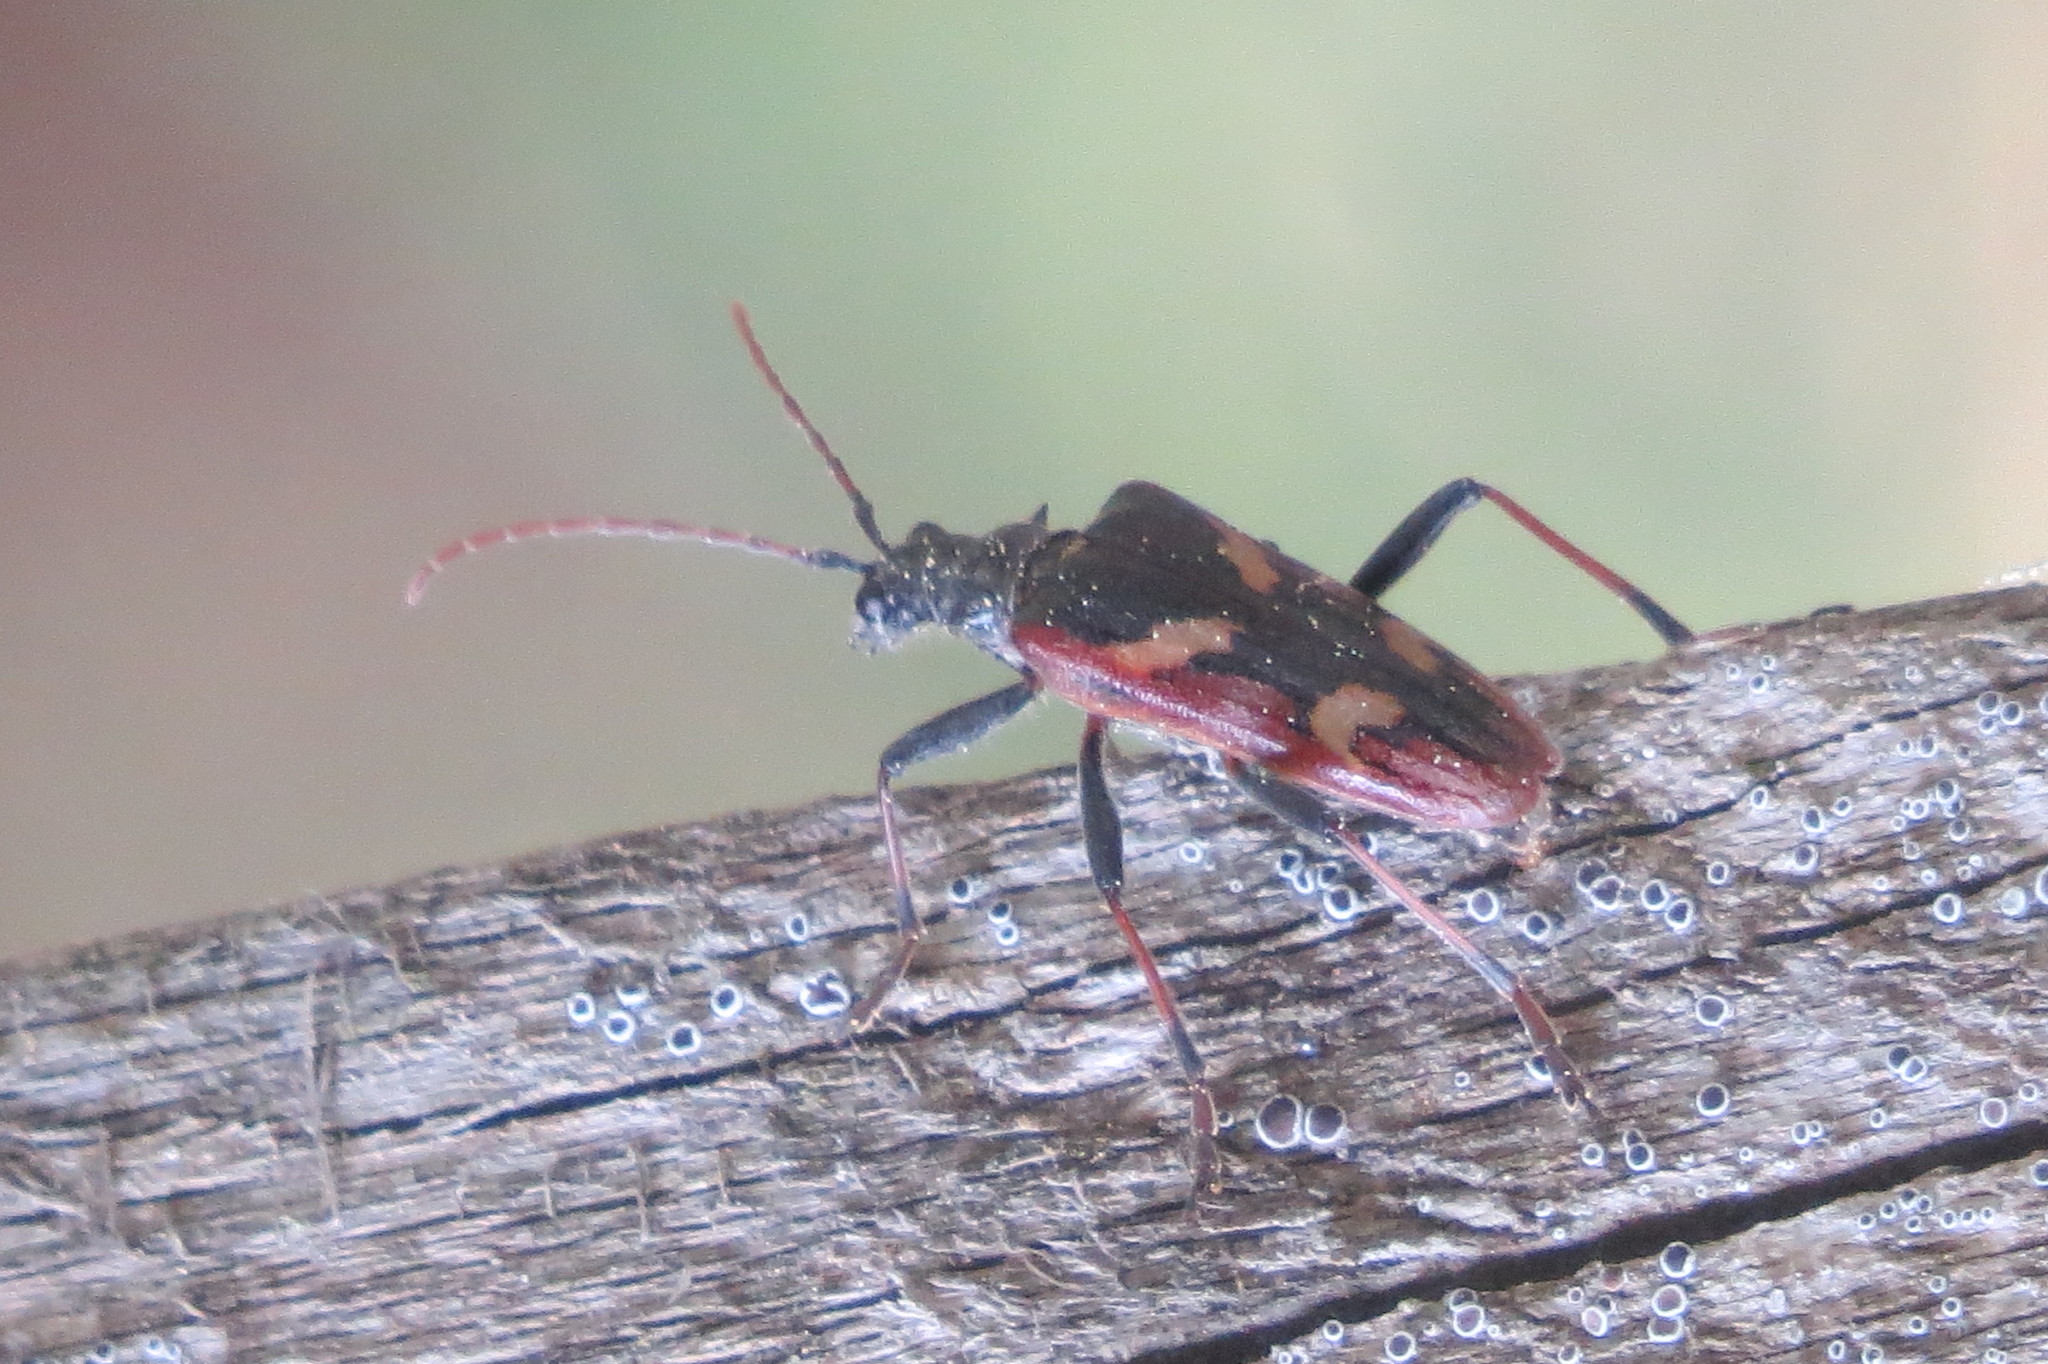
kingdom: Animalia
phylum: Arthropoda
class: Insecta
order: Coleoptera
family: Cerambycidae
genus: Rhagium
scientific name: Rhagium bifasciatum
